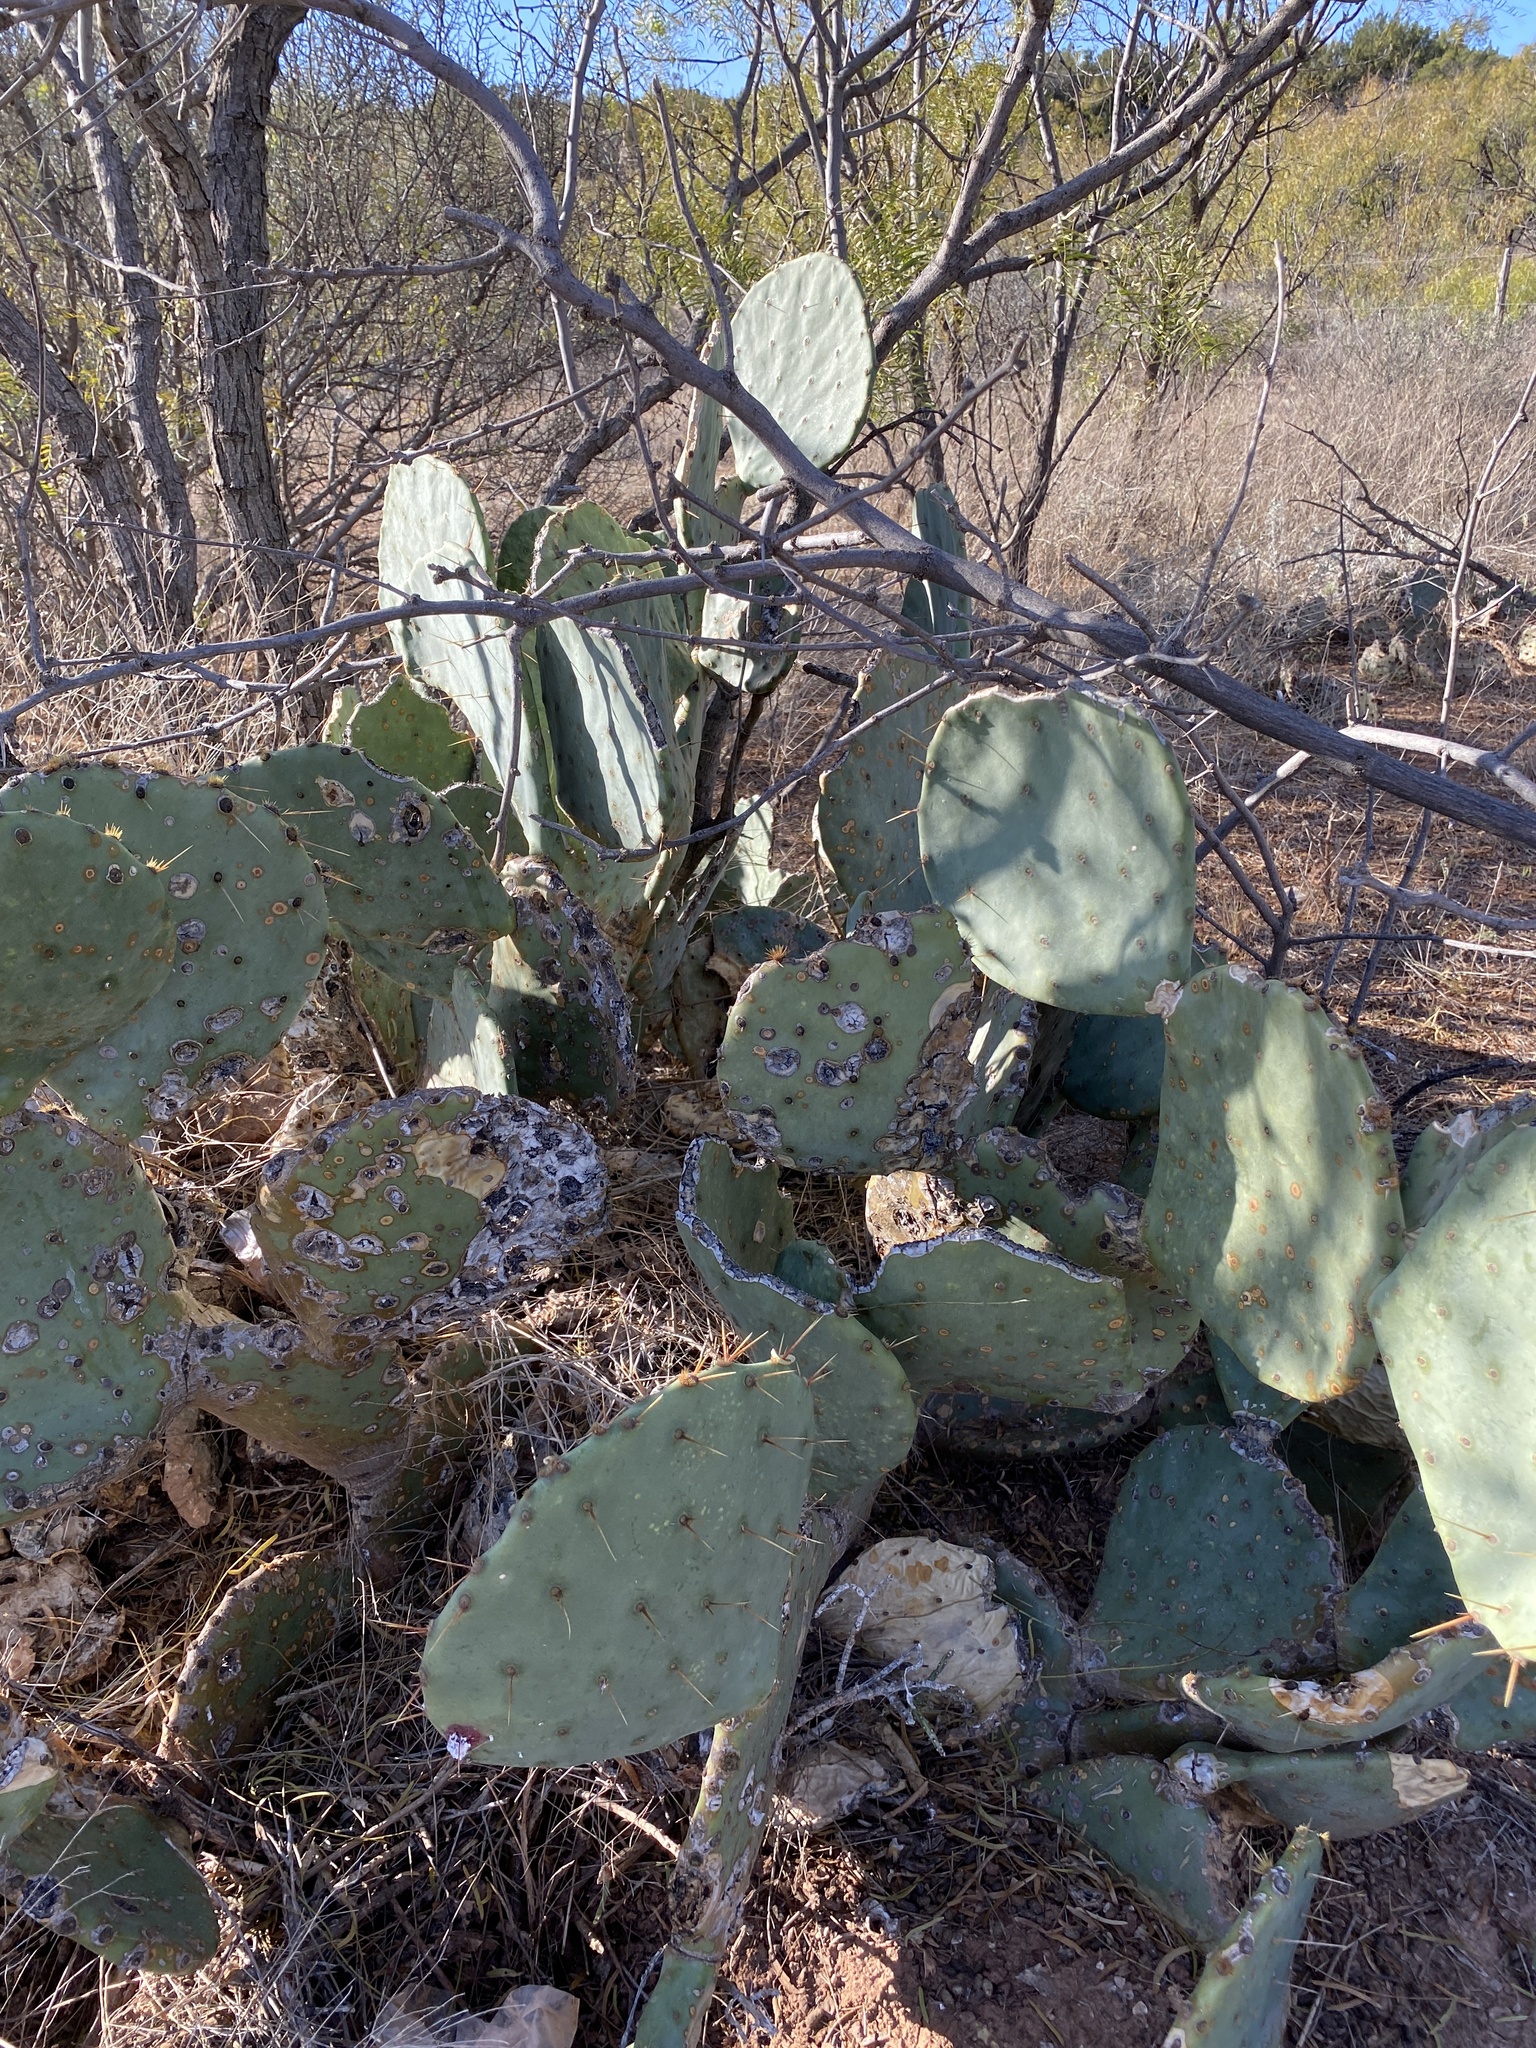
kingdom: Plantae
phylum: Tracheophyta
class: Magnoliopsida
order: Caryophyllales
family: Cactaceae
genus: Opuntia
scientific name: Opuntia engelmannii
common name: Cactus-apple
